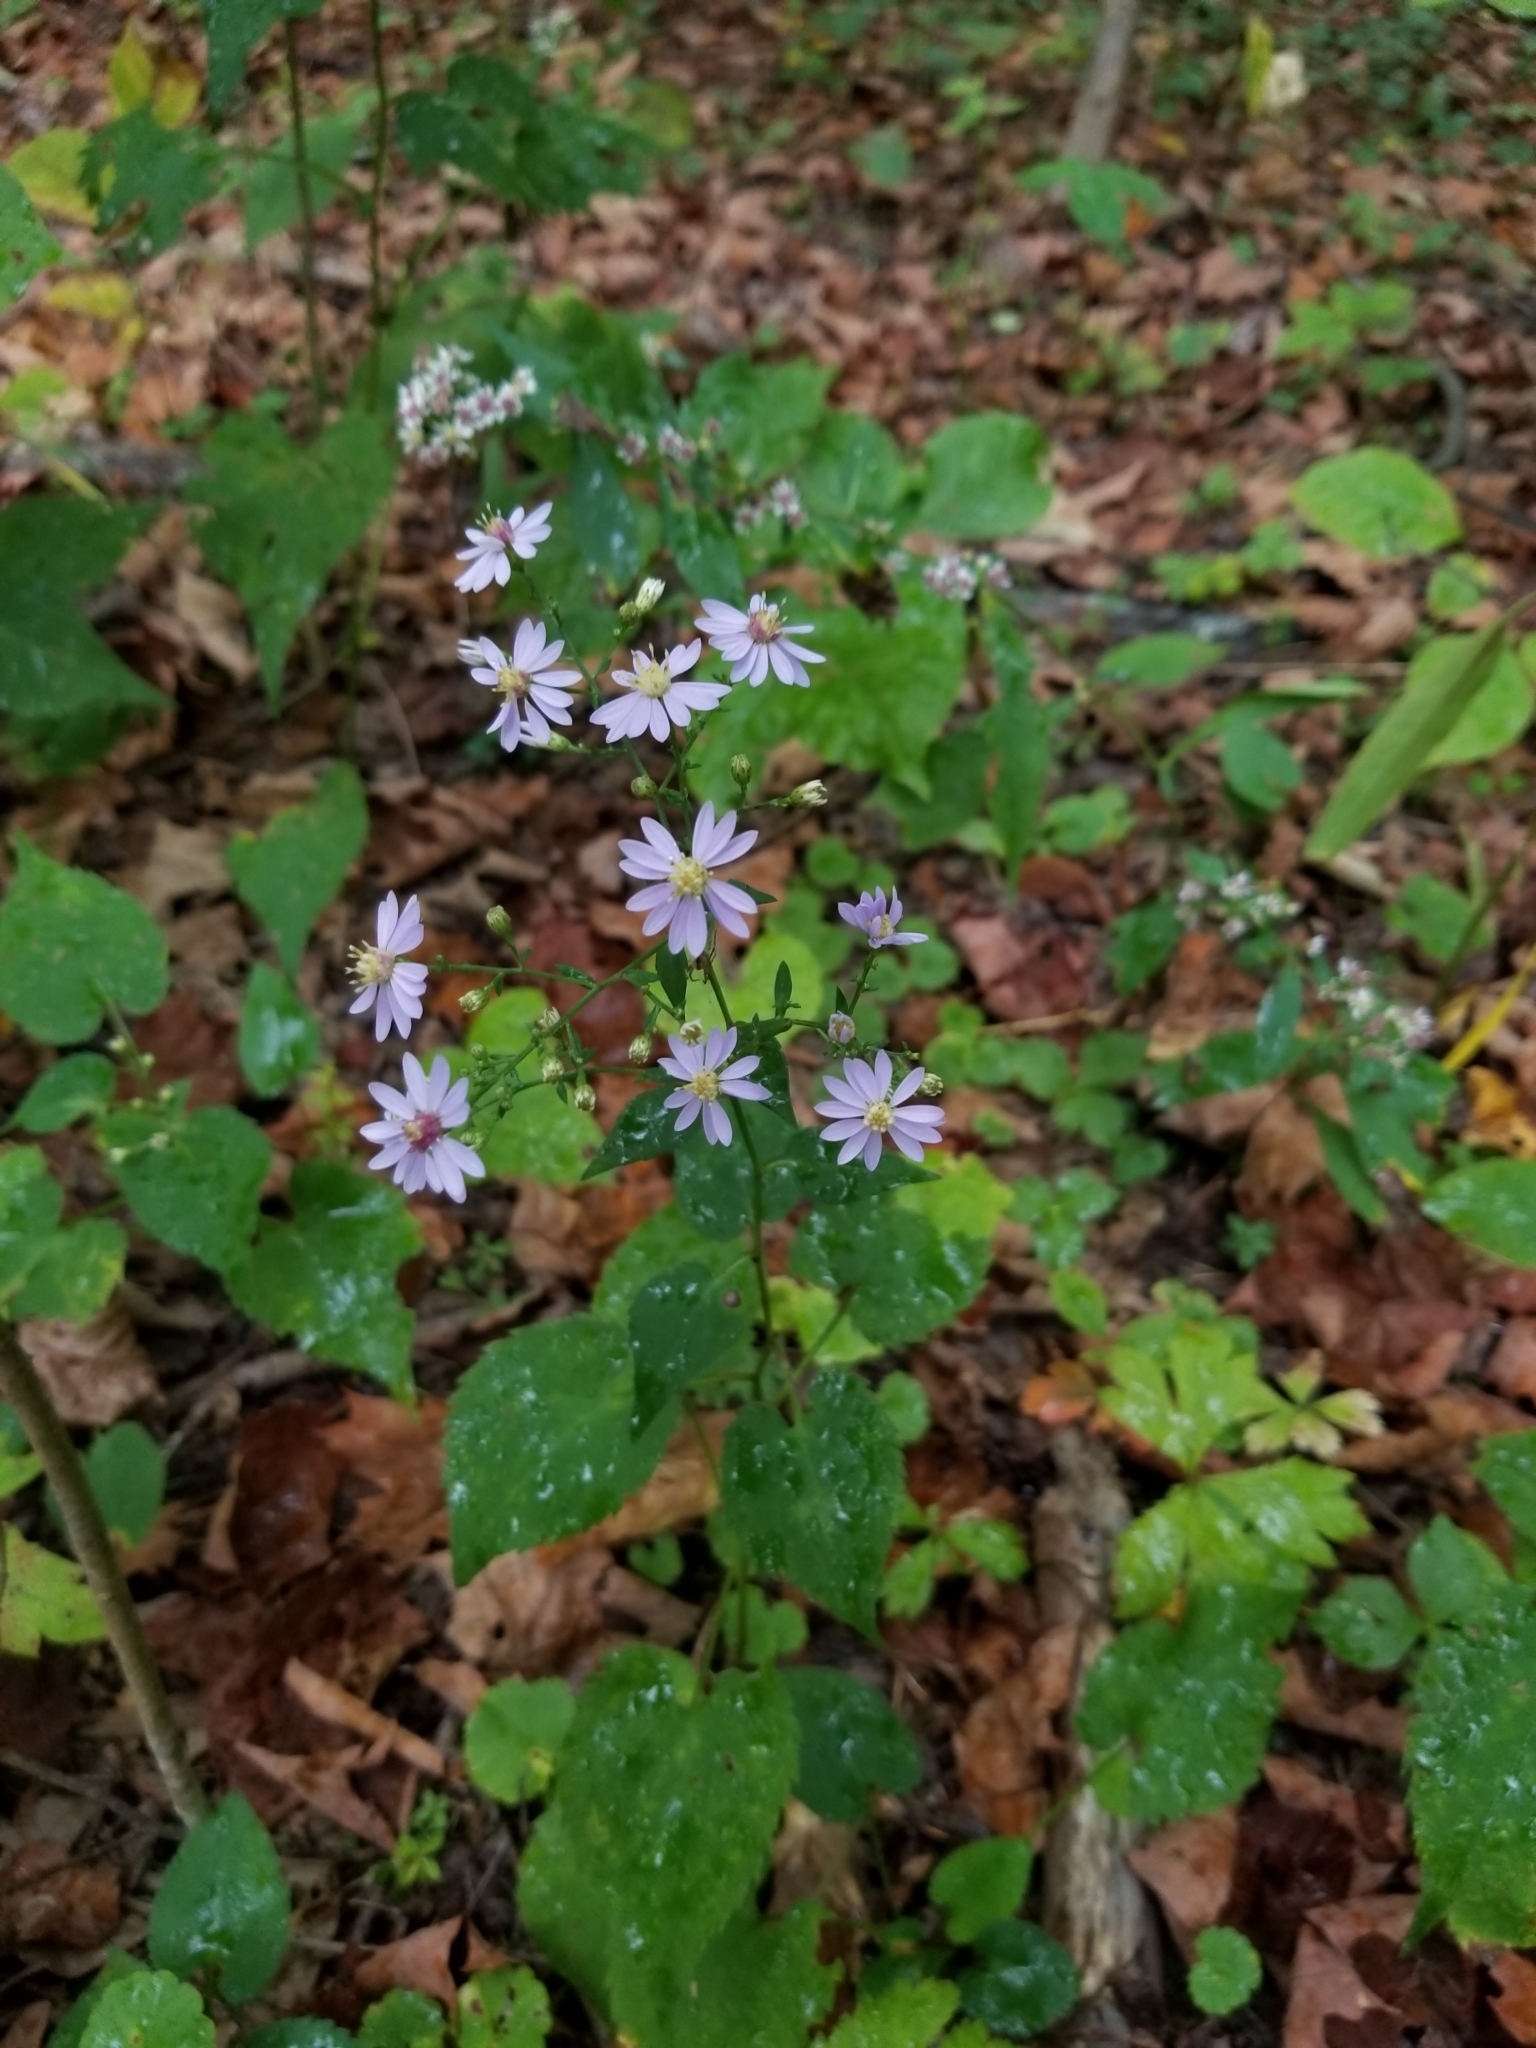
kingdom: Plantae
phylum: Tracheophyta
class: Magnoliopsida
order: Asterales
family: Asteraceae
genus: Symphyotrichum
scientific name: Symphyotrichum cordifolium
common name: Beeweed
